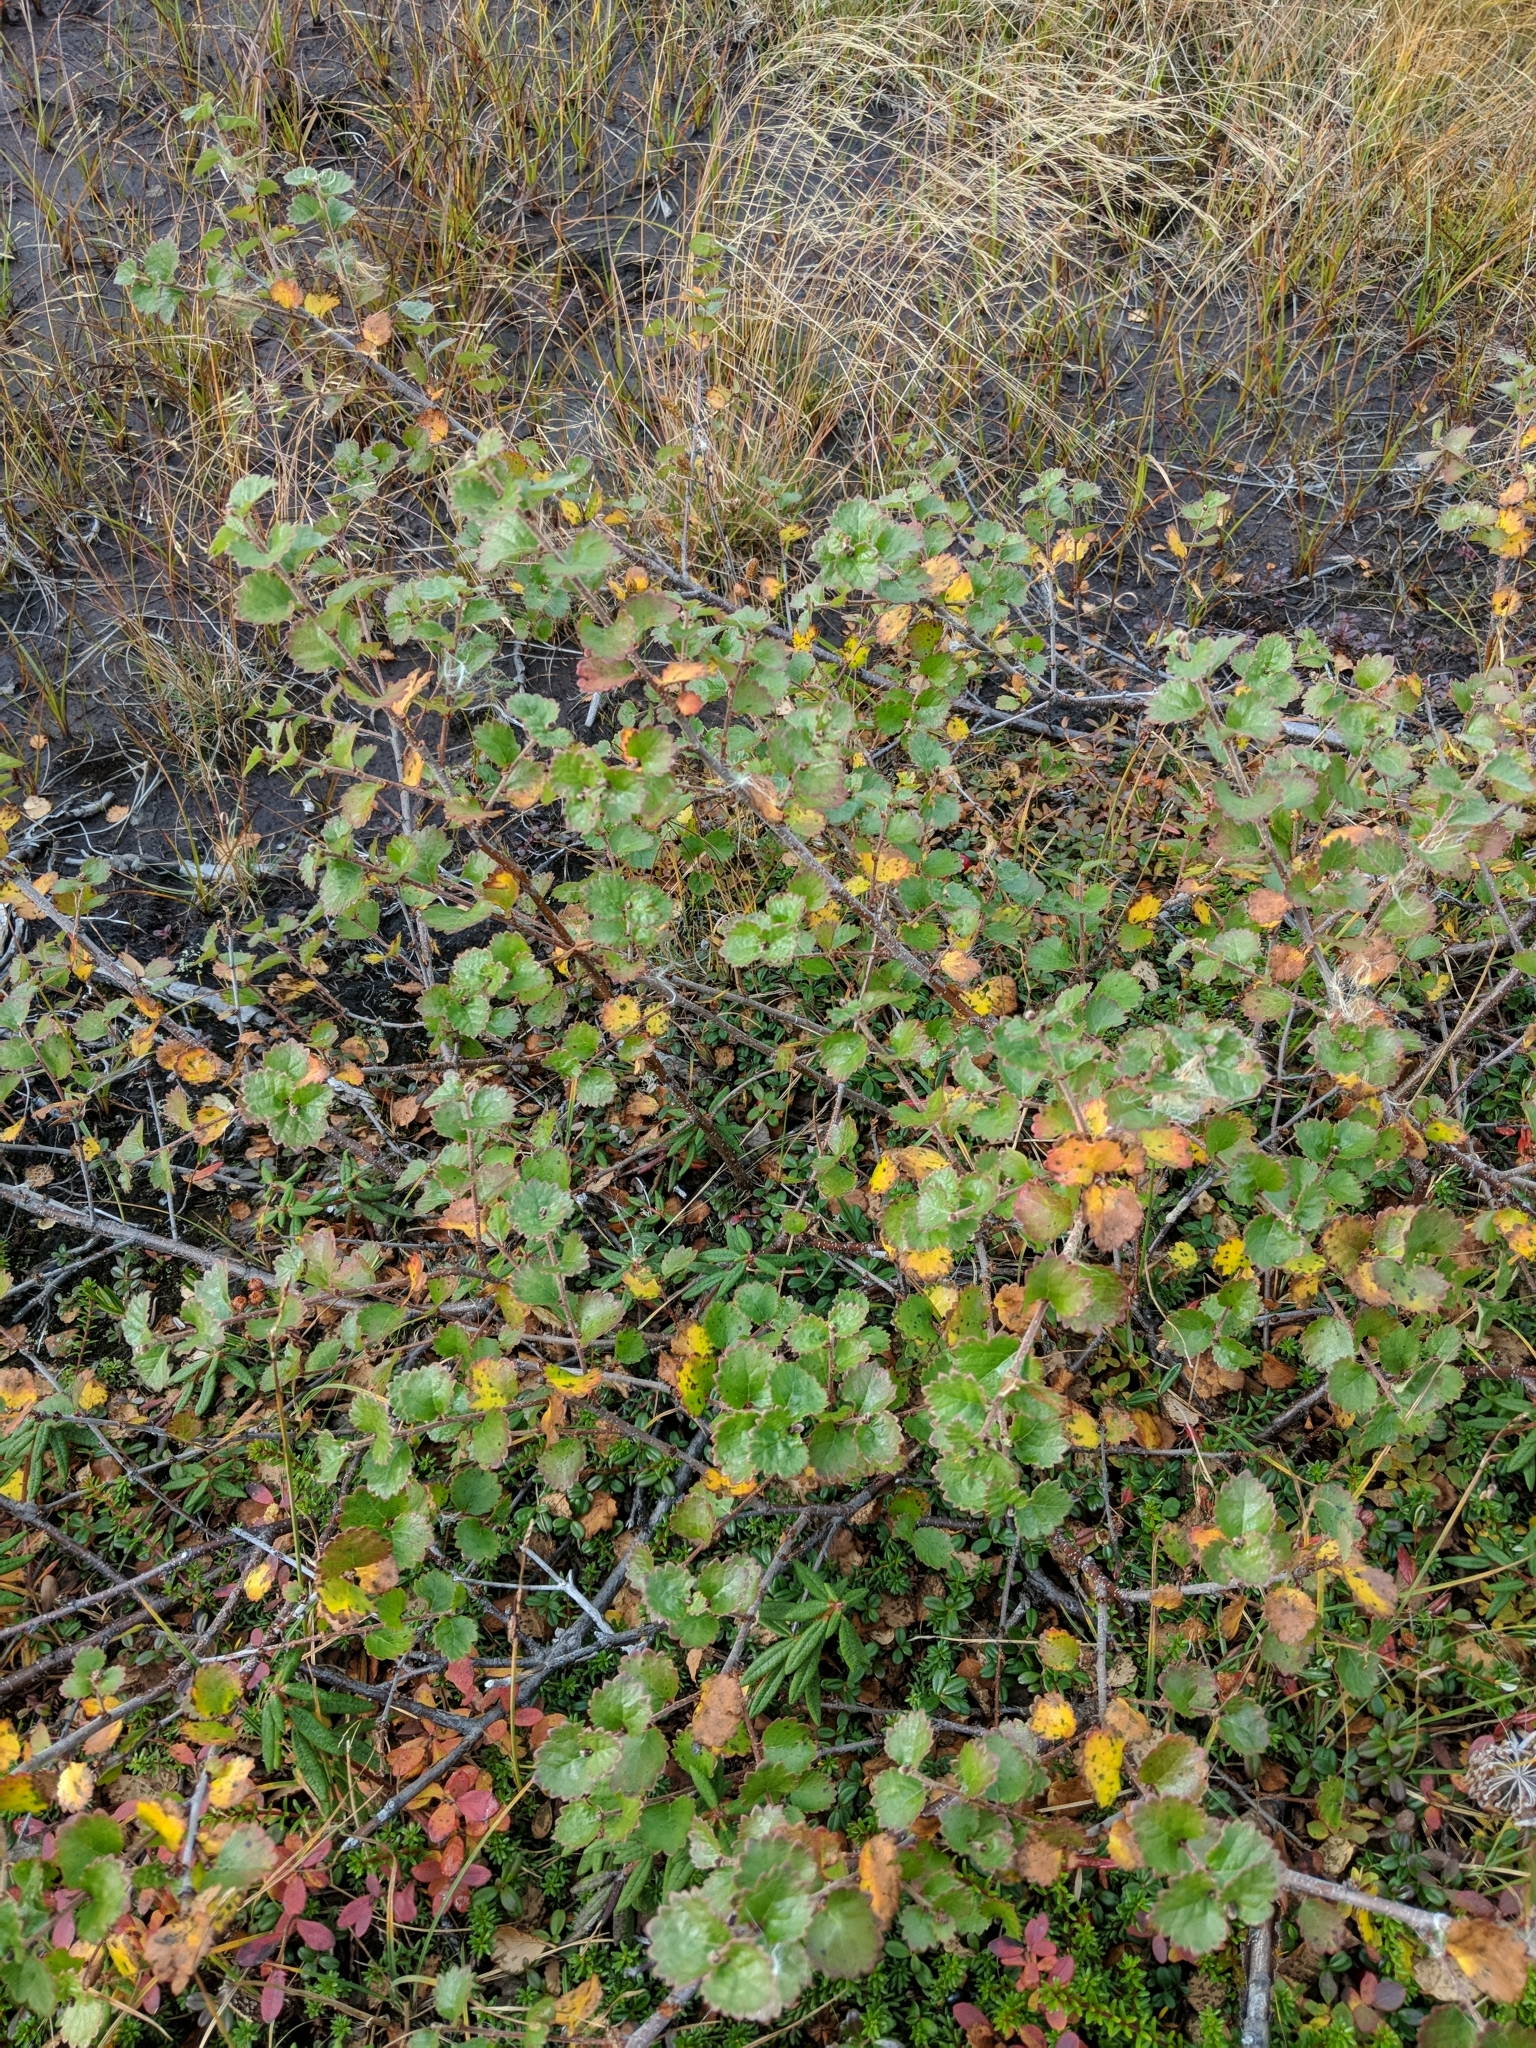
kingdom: Plantae
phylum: Tracheophyta
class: Magnoliopsida
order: Fagales
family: Betulaceae
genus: Betula
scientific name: Betula pumila
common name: Bog birch
